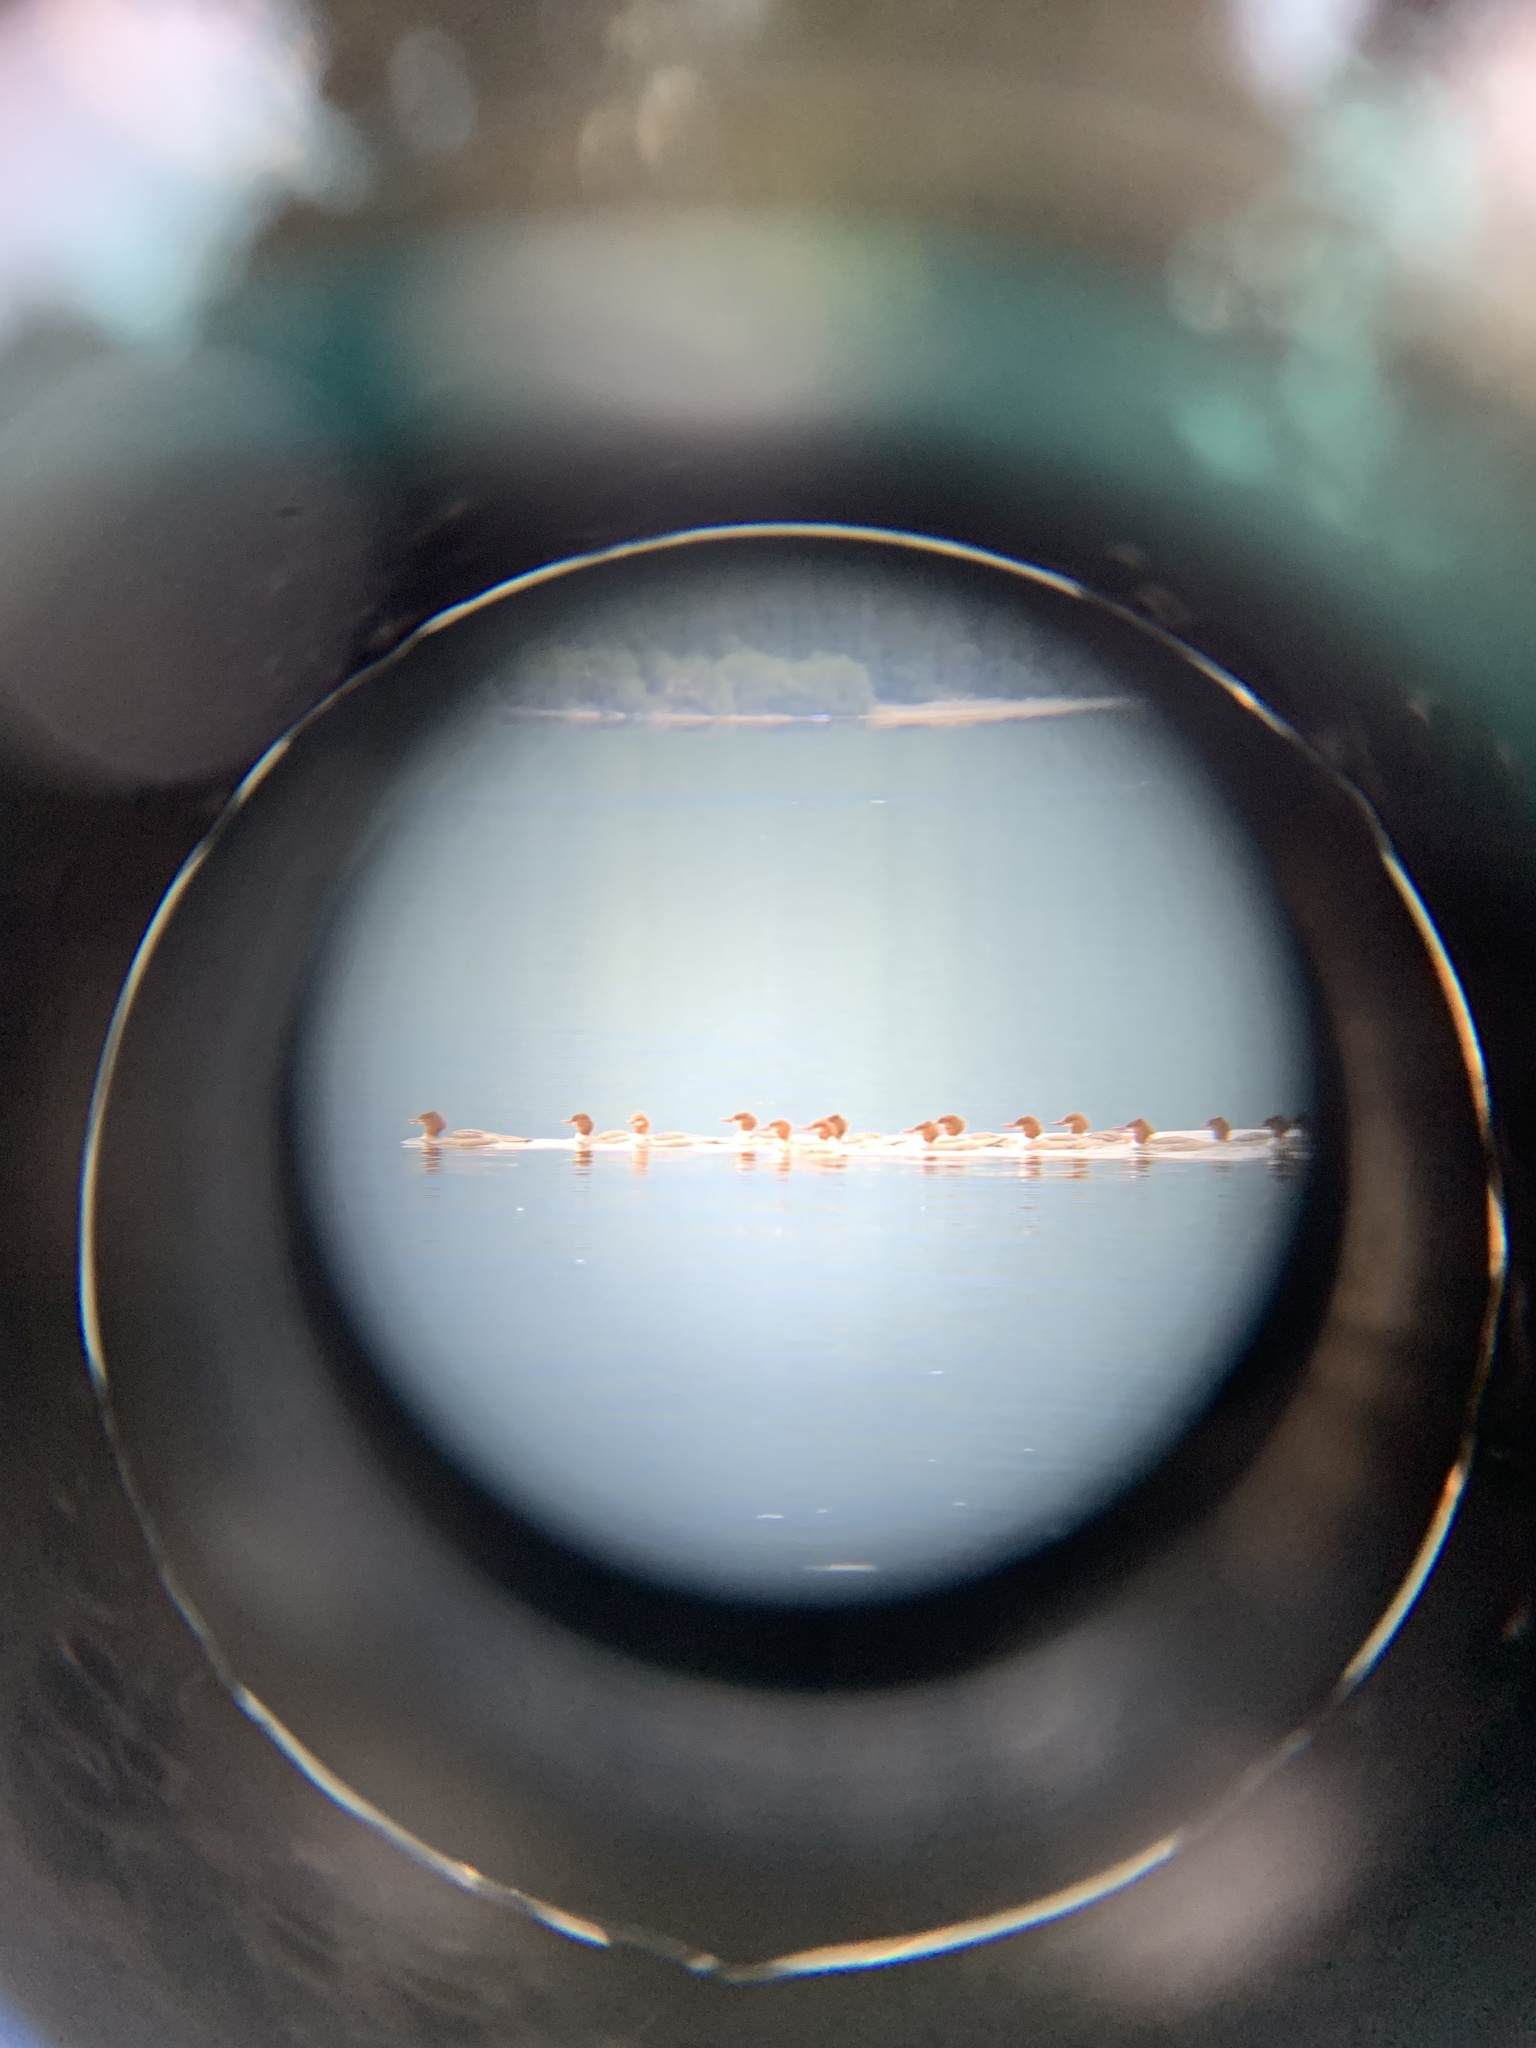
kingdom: Animalia
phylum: Chordata
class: Aves
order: Anseriformes
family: Anatidae
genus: Mergus
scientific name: Mergus merganser
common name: Common merganser
